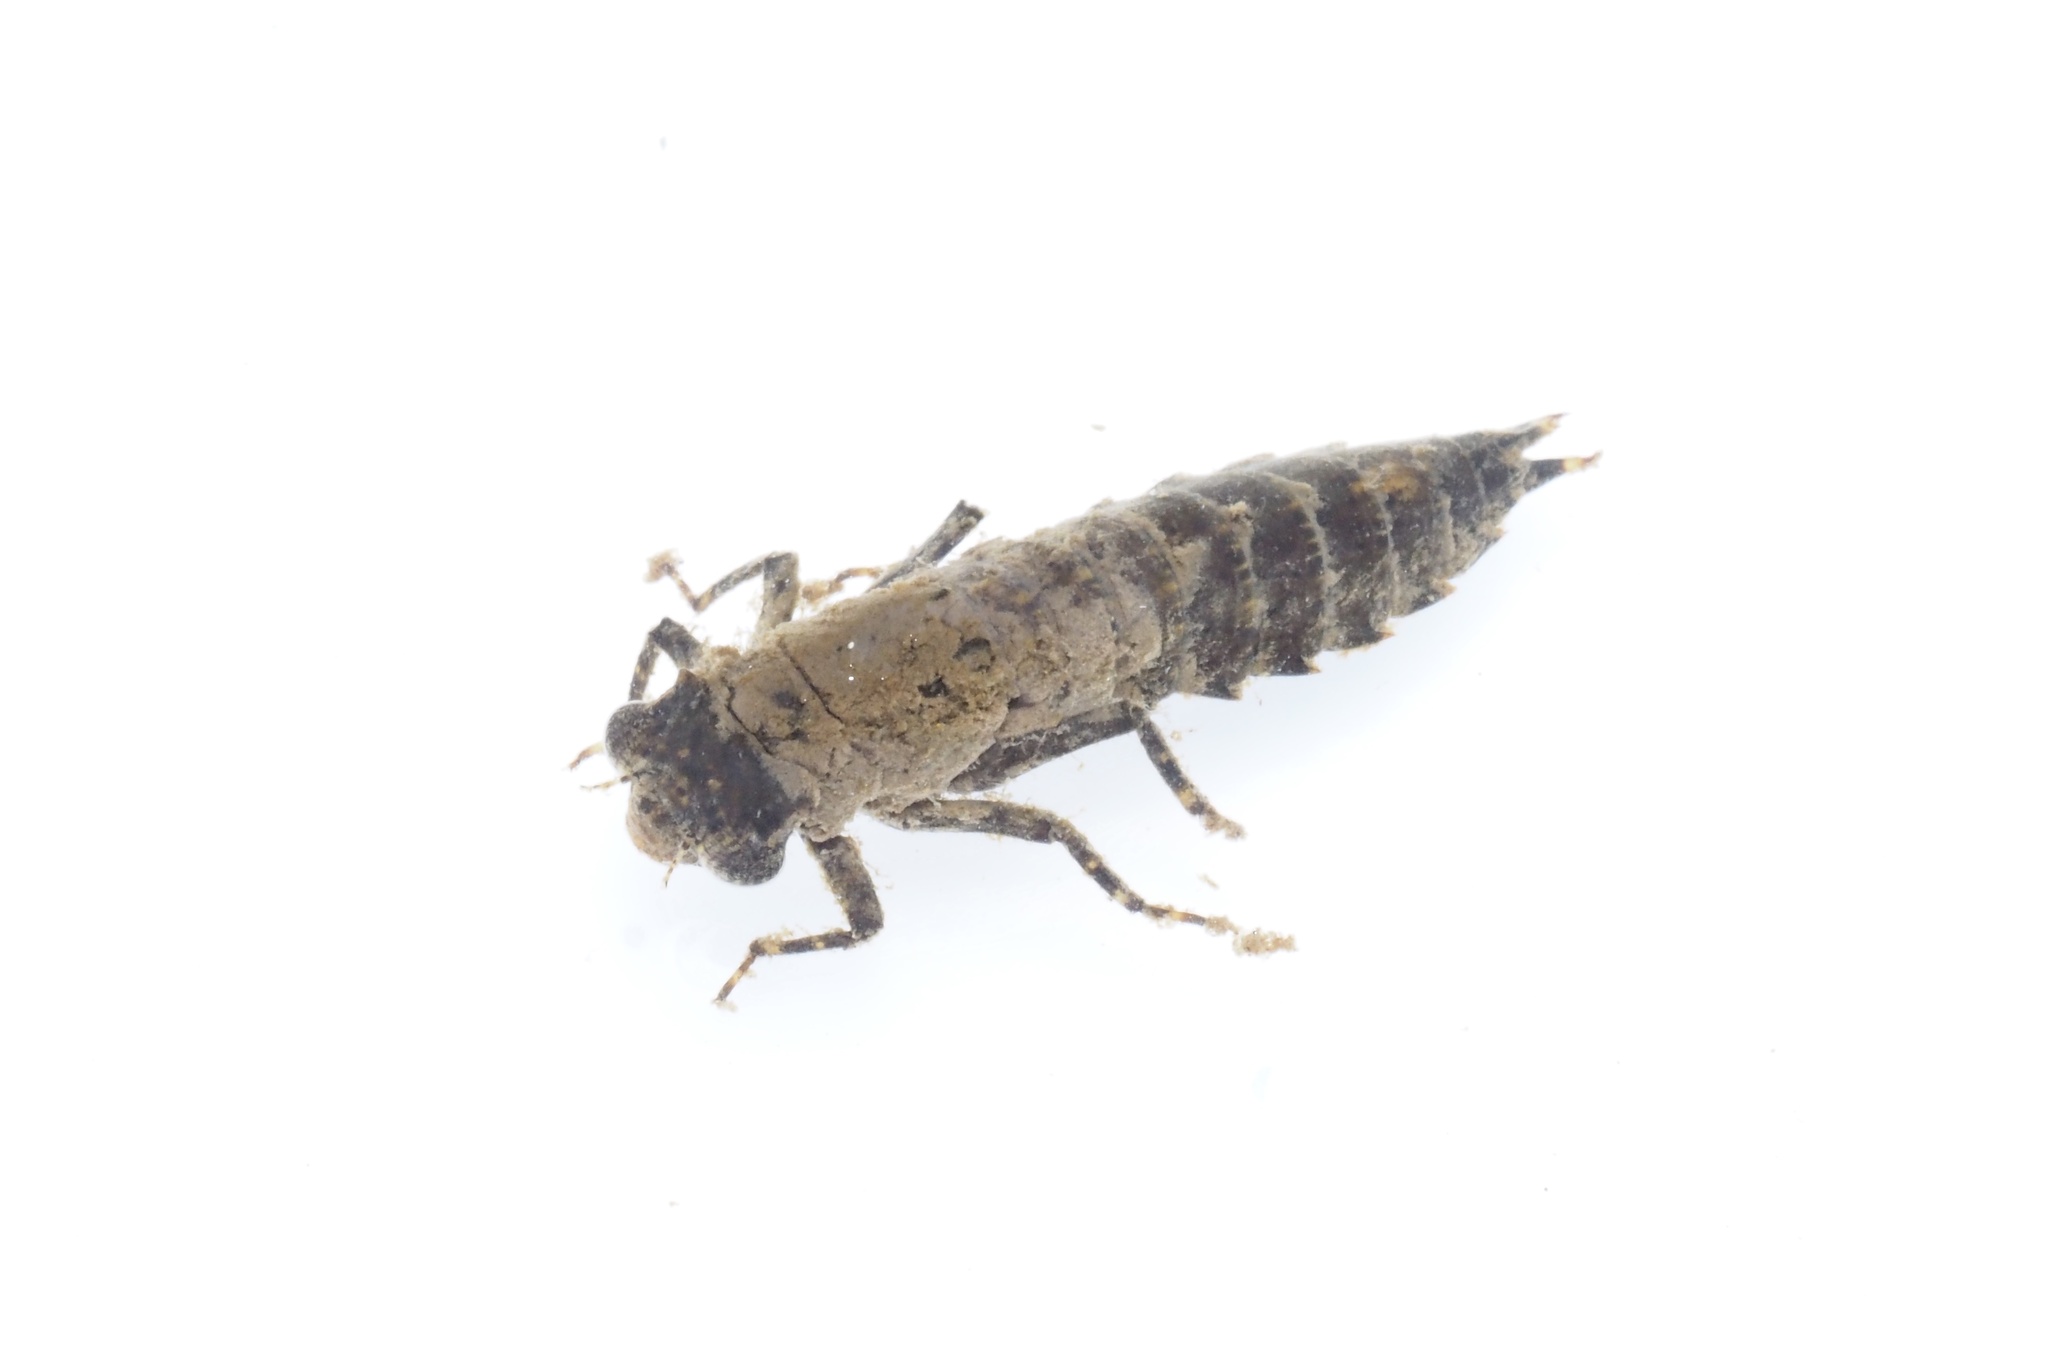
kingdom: Animalia
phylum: Arthropoda
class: Insecta
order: Odonata
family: Aeshnidae
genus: Boyeria
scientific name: Boyeria maclachlani
